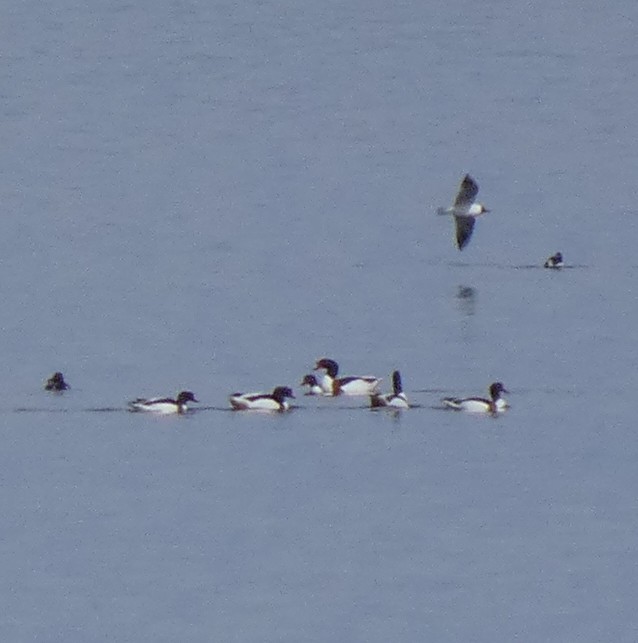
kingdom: Animalia
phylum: Chordata
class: Aves
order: Anseriformes
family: Anatidae
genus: Tadorna
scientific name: Tadorna tadorna
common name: Common shelduck
